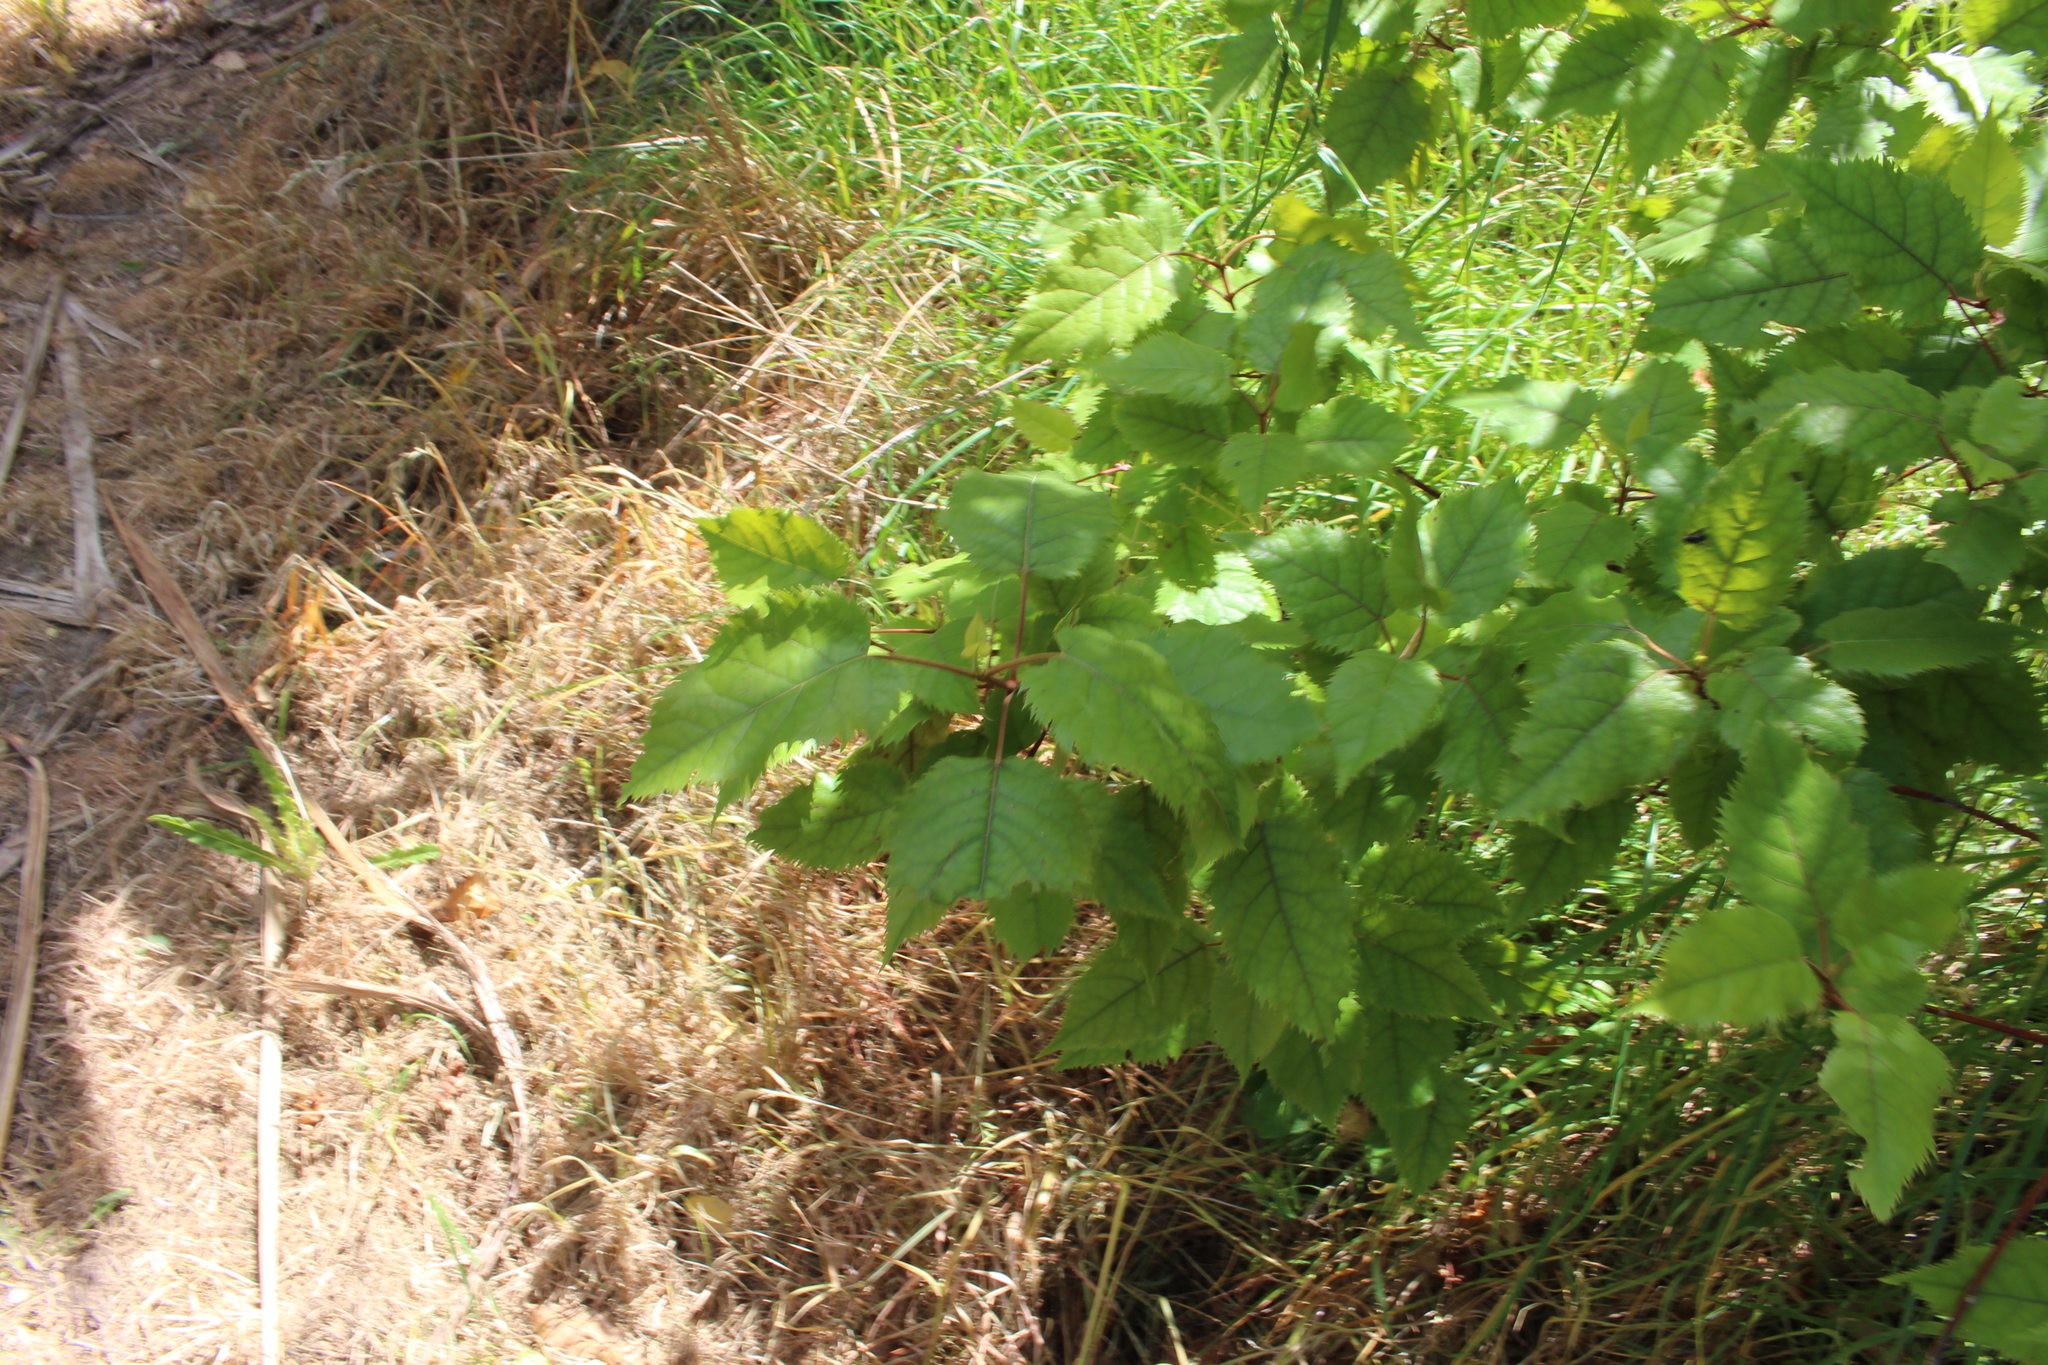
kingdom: Plantae
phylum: Tracheophyta
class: Magnoliopsida
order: Oxalidales
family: Elaeocarpaceae
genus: Aristotelia
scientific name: Aristotelia serrata
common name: New zealand wineberry
